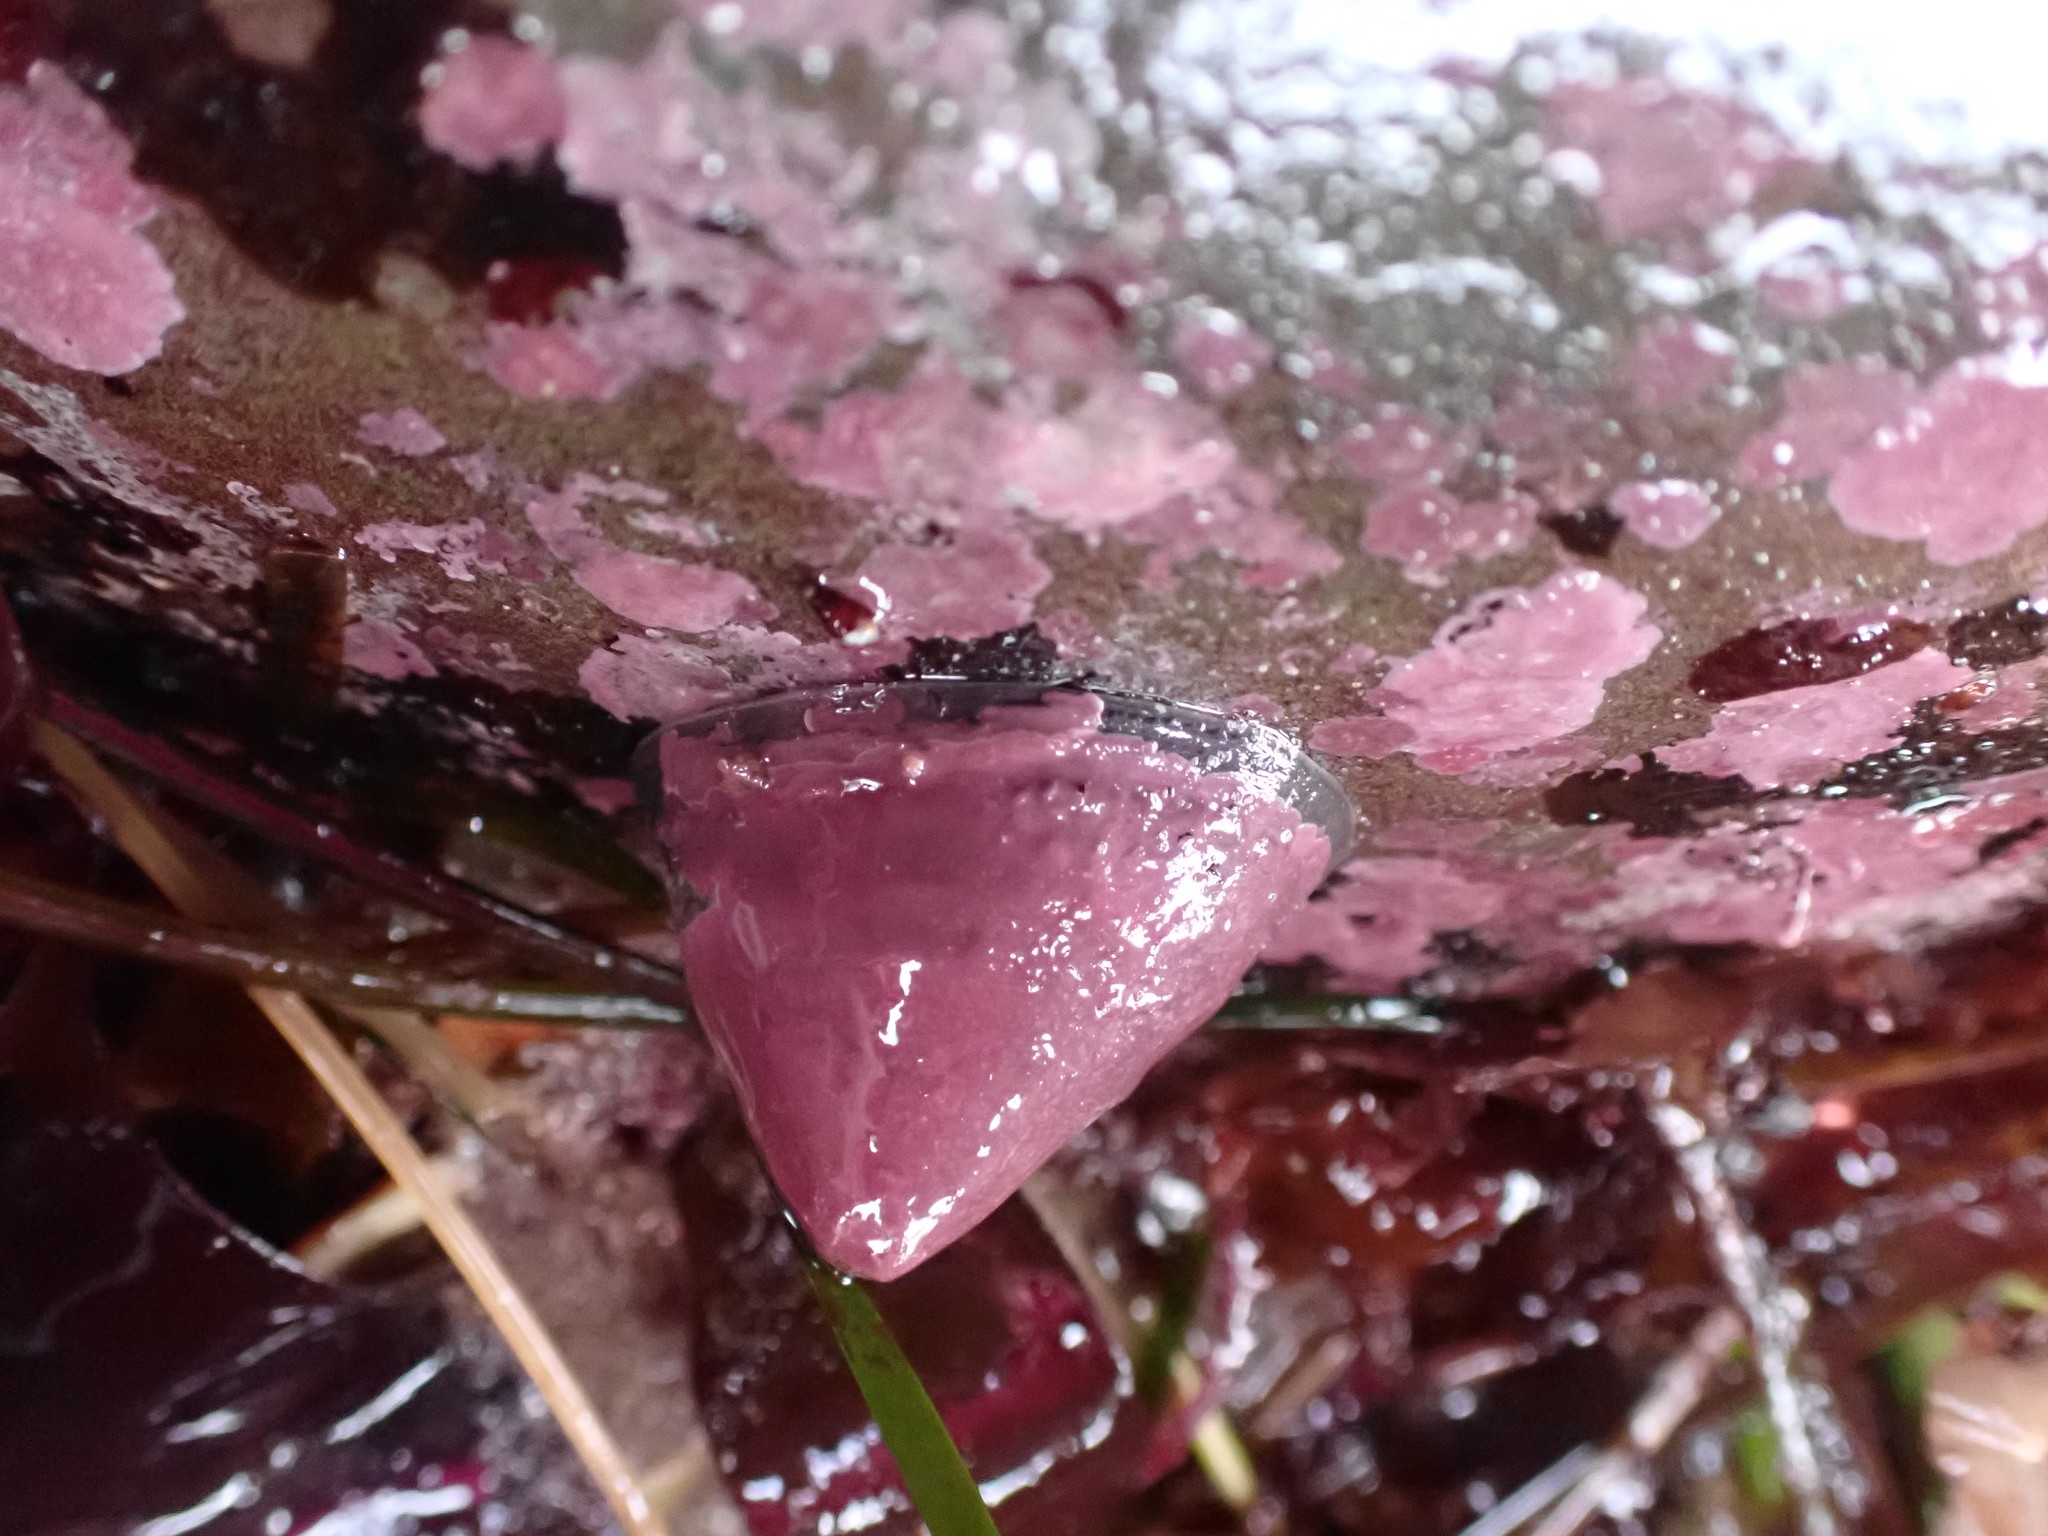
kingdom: Animalia
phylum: Mollusca
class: Gastropoda
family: Acmaeidae
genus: Acmaea
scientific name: Acmaea mitra
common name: Pacific white cap limpet
